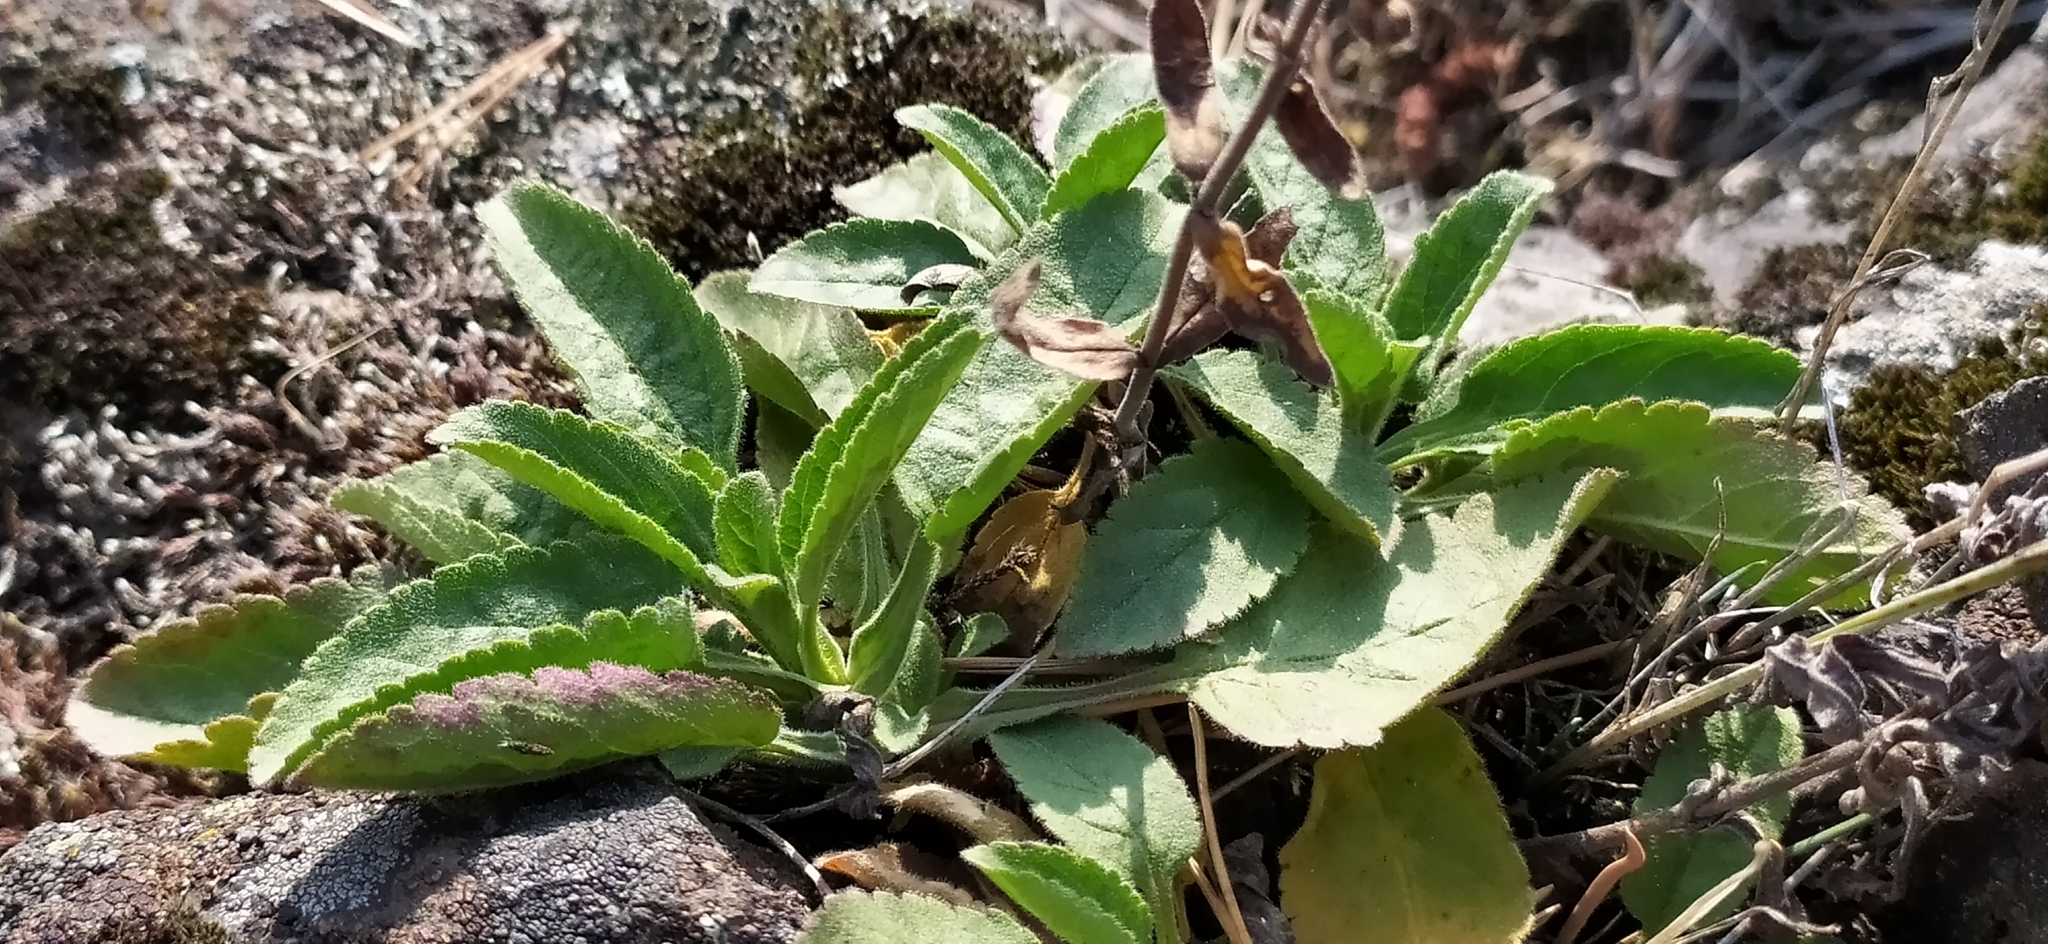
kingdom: Plantae
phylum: Tracheophyta
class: Magnoliopsida
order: Lamiales
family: Plantaginaceae
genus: Veronica
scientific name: Veronica spicata
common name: Spiked speedwell
